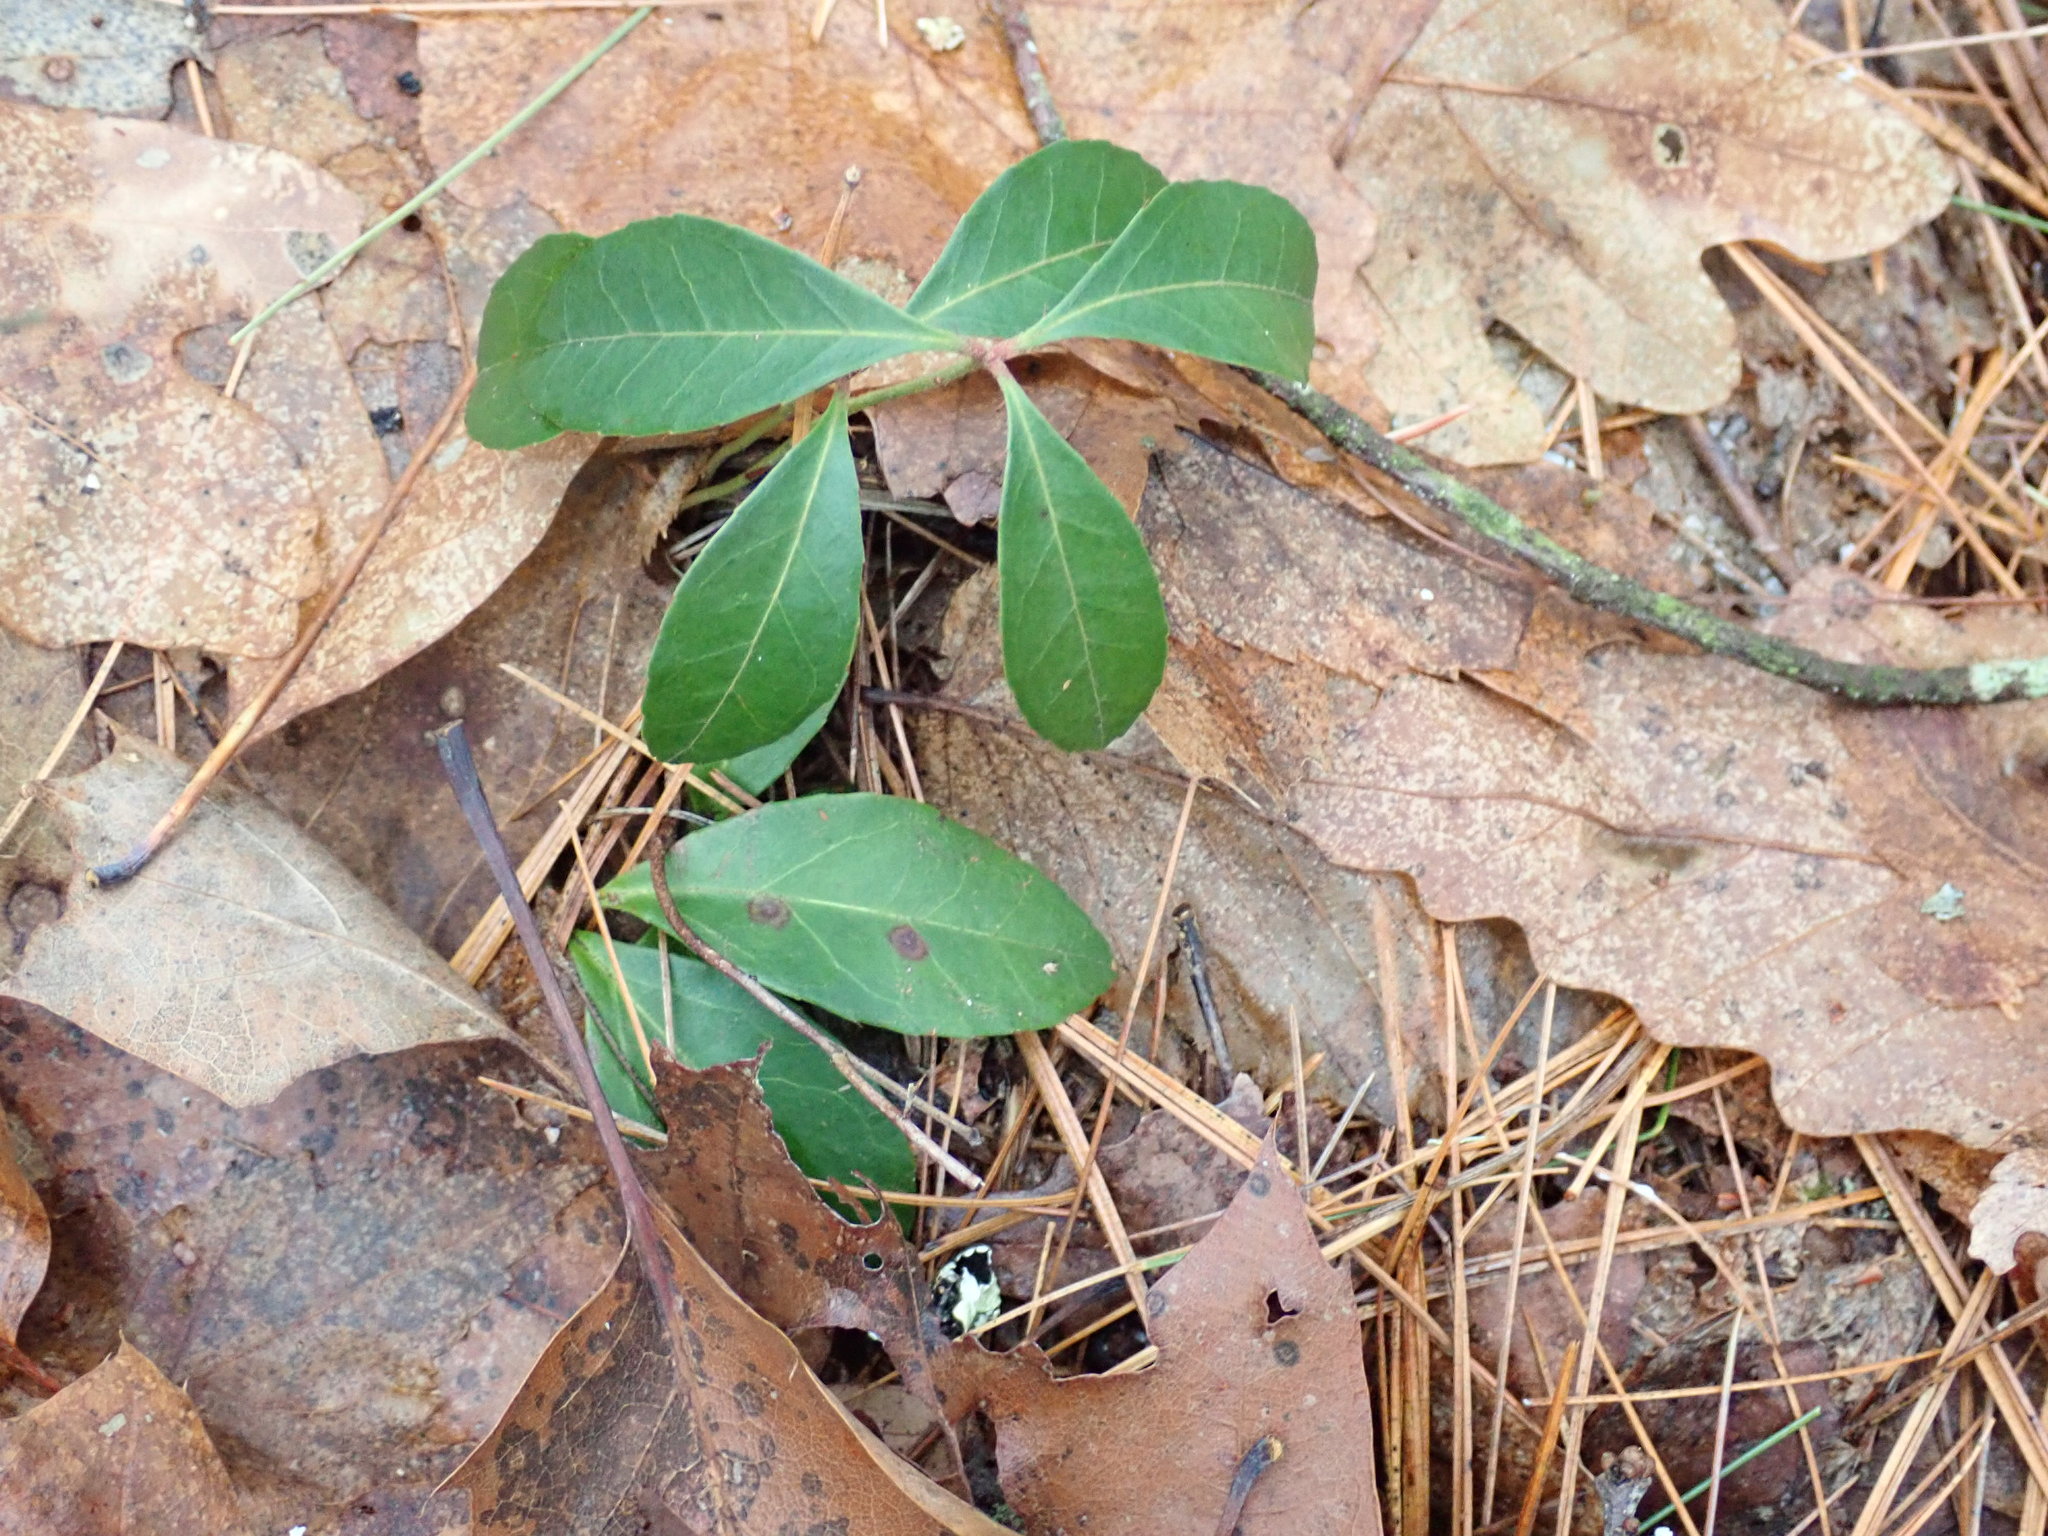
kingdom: Plantae
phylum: Tracheophyta
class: Magnoliopsida
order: Ericales
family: Ericaceae
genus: Gaultheria
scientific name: Gaultheria procumbens
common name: Checkerberry
